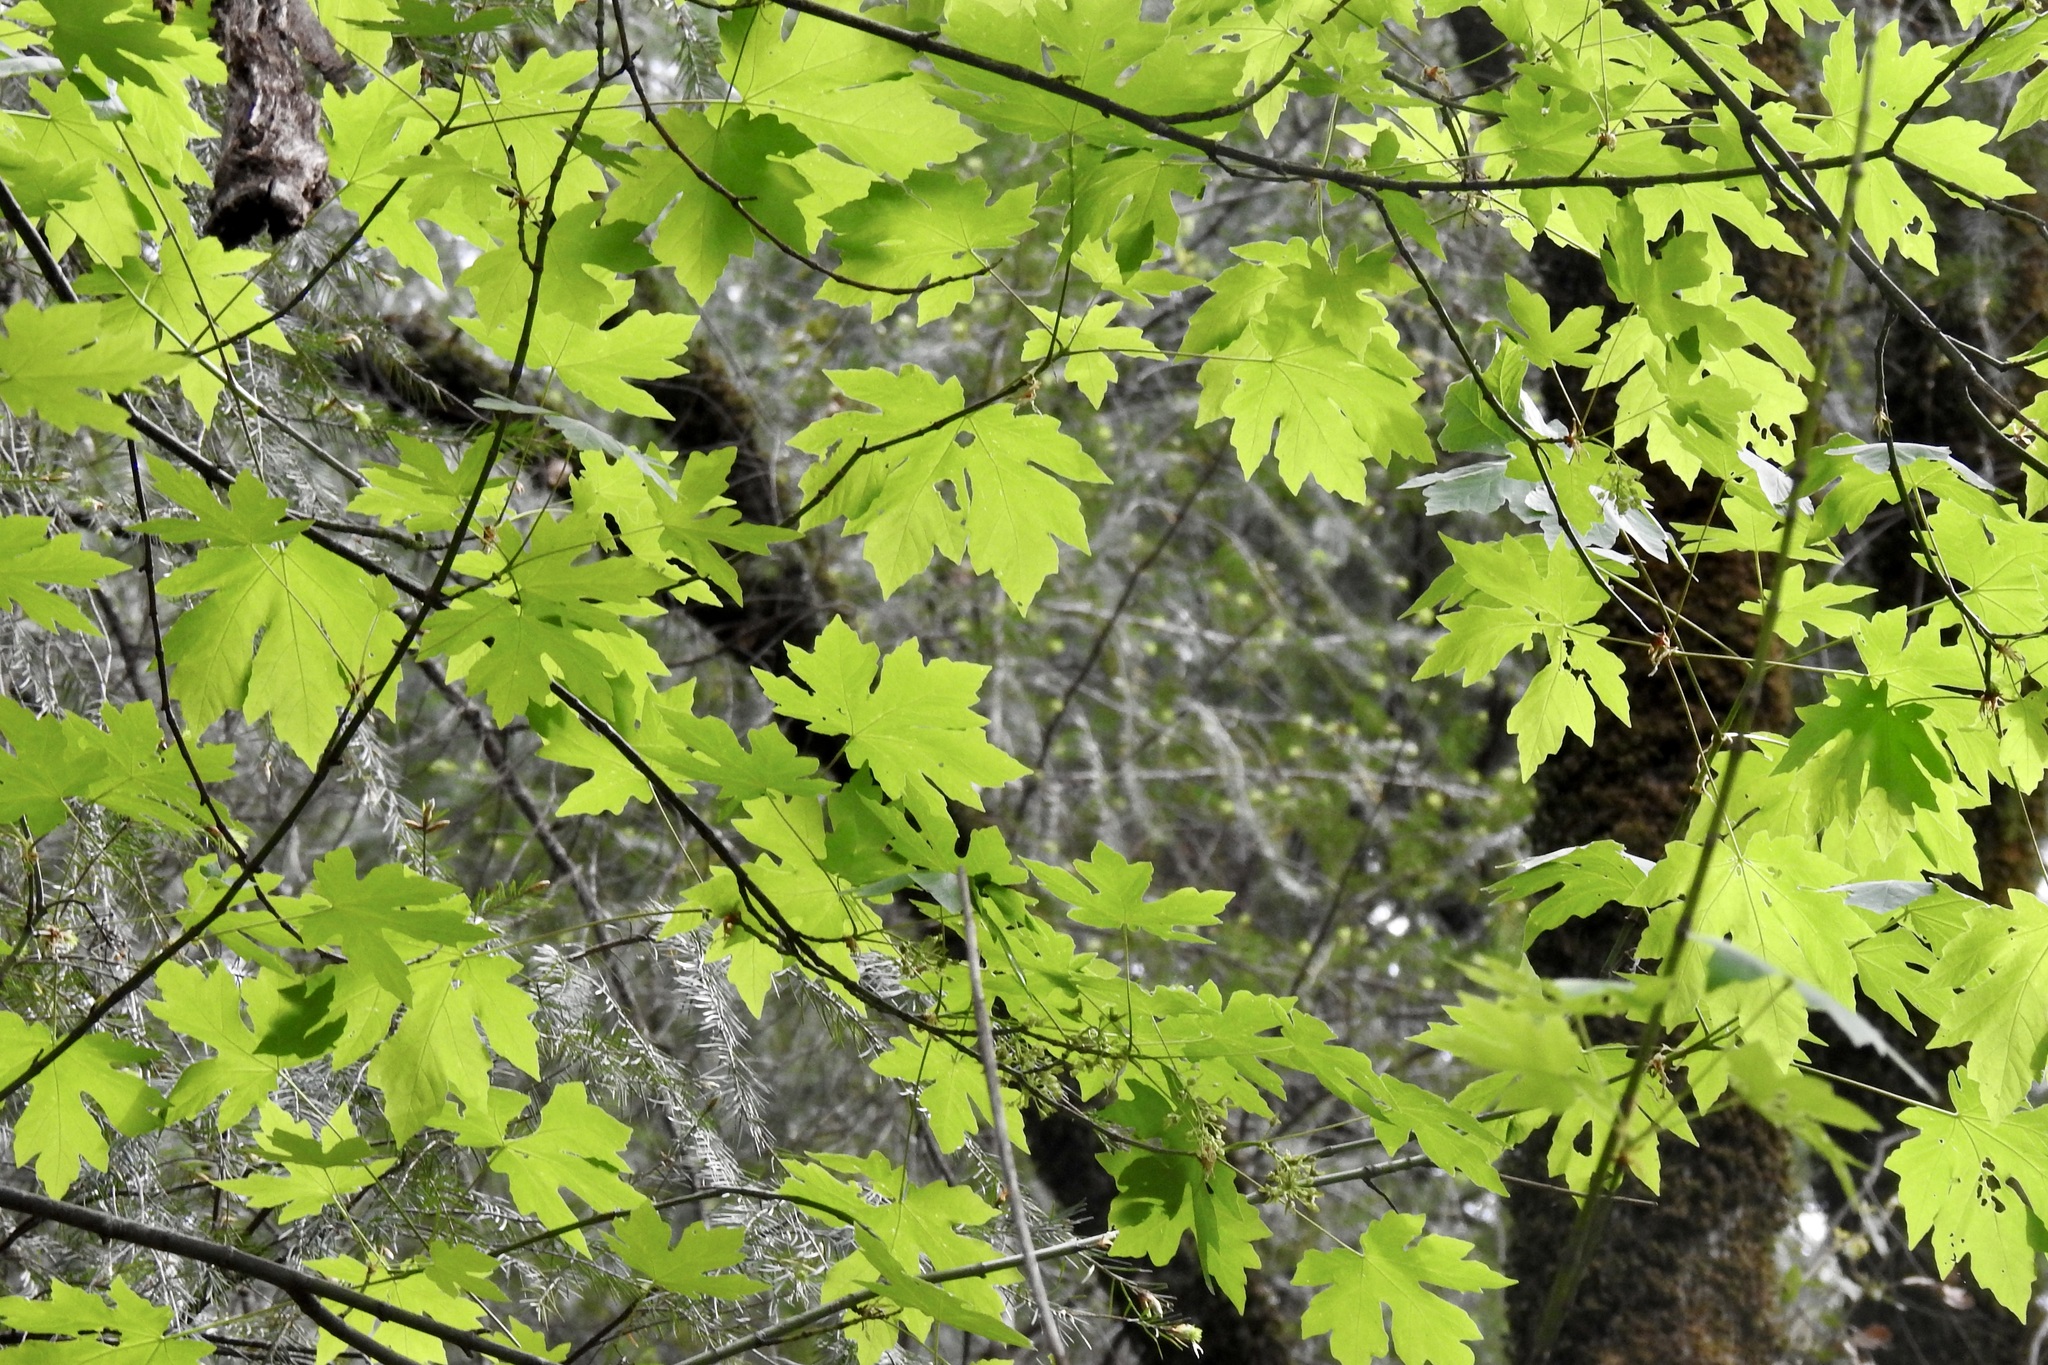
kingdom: Plantae
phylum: Tracheophyta
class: Magnoliopsida
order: Sapindales
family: Sapindaceae
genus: Acer
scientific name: Acer macrophyllum
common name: Oregon maple
